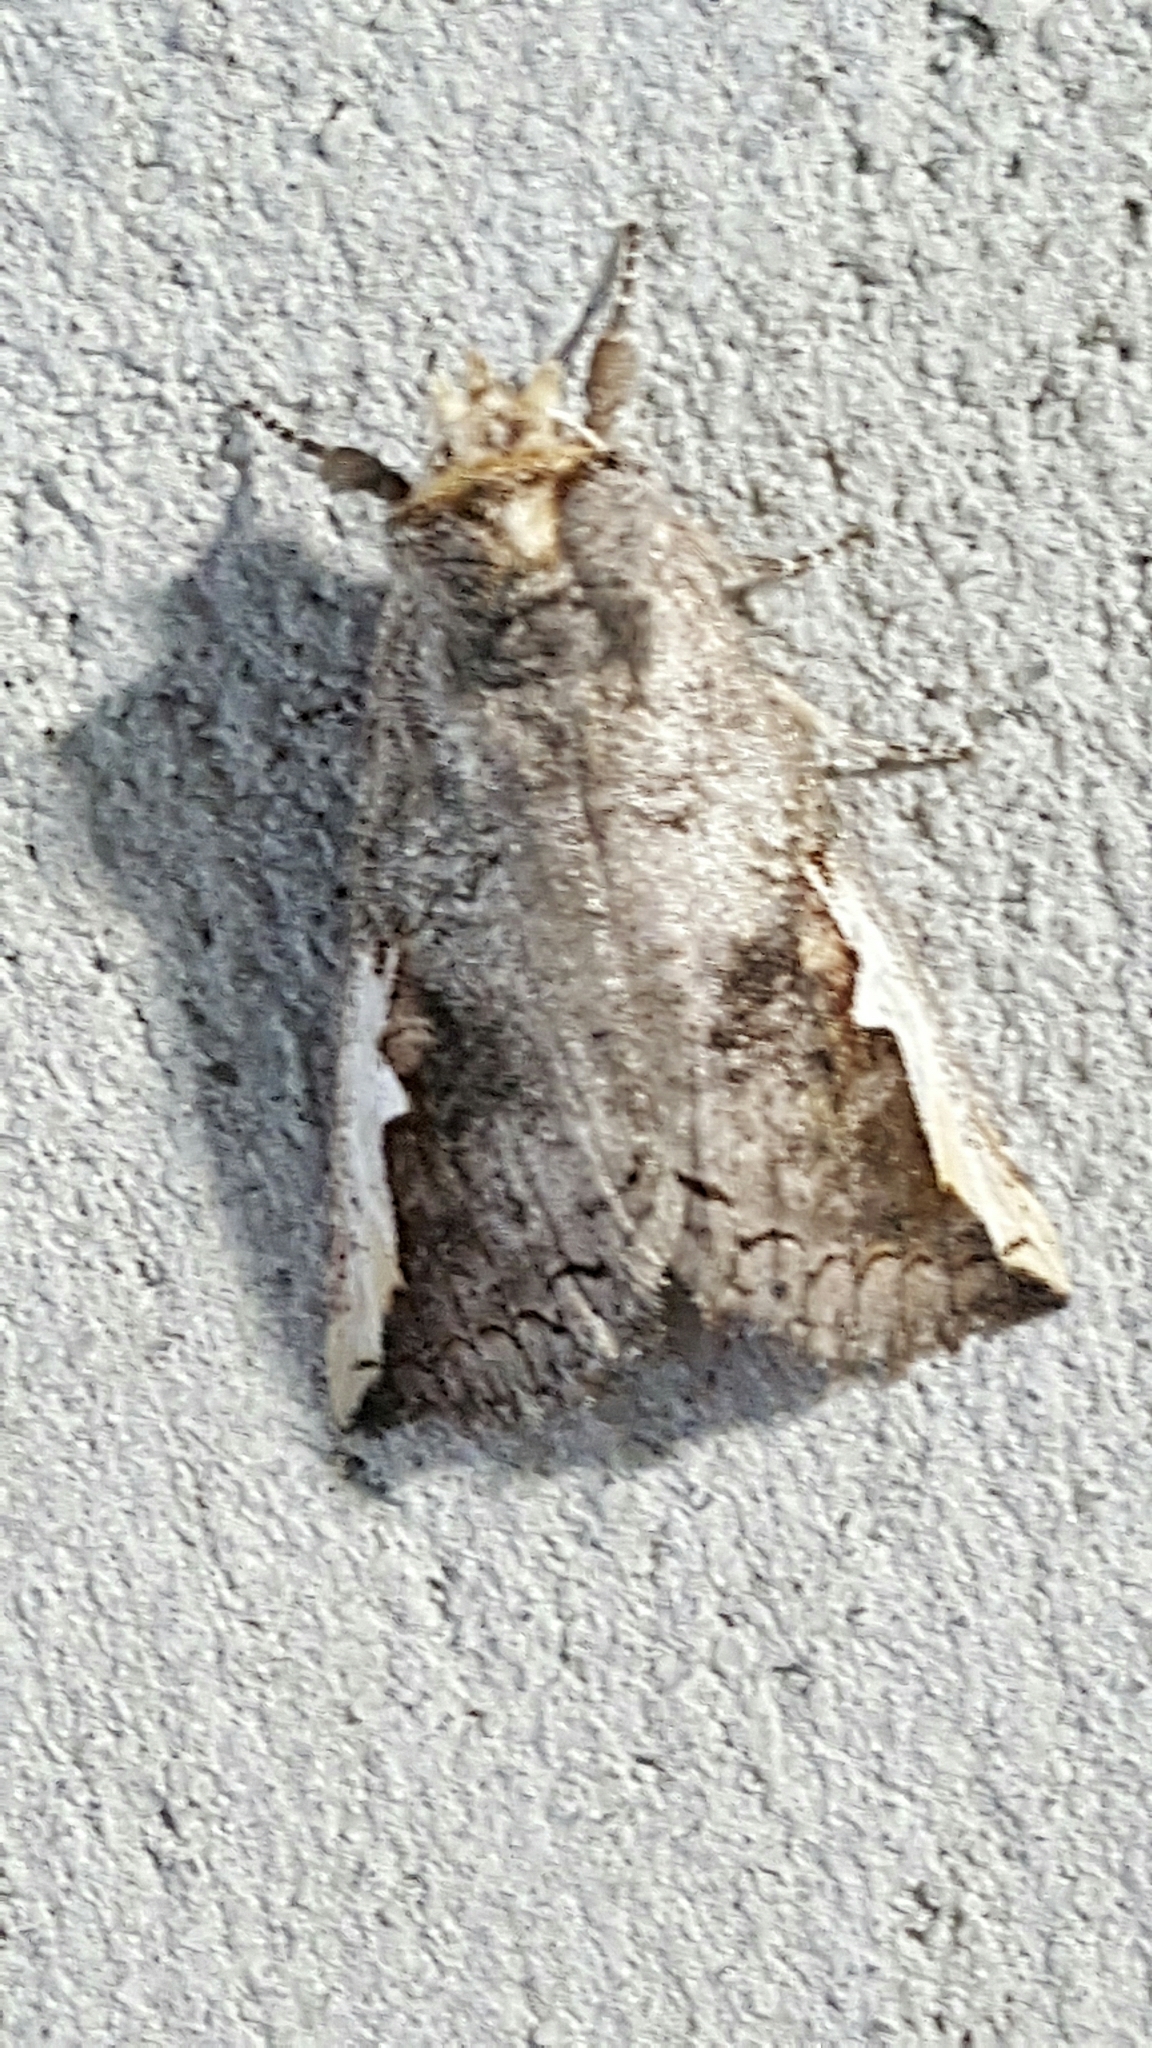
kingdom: Animalia
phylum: Arthropoda
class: Insecta
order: Lepidoptera
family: Notodontidae
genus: Symmerista
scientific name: Symmerista
